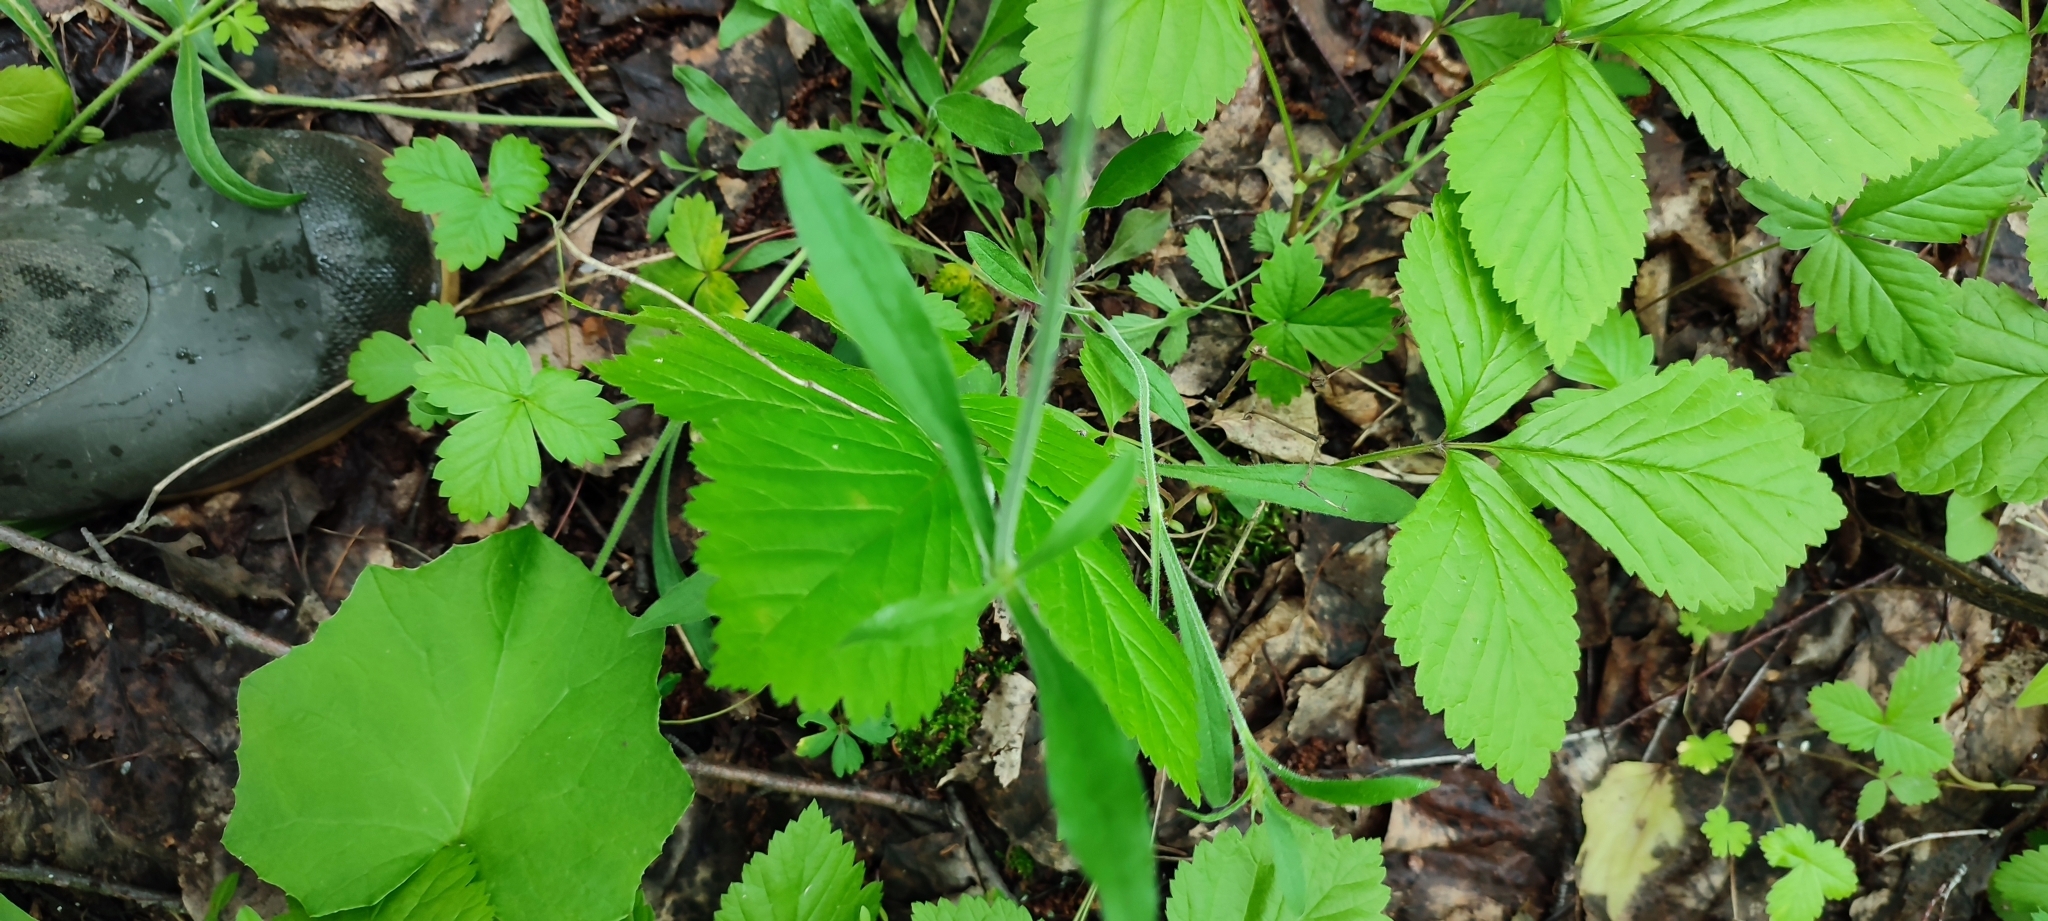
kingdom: Plantae
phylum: Tracheophyta
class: Magnoliopsida
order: Caryophyllales
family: Caryophyllaceae
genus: Silene
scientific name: Silene nutans
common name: Nottingham catchfly
